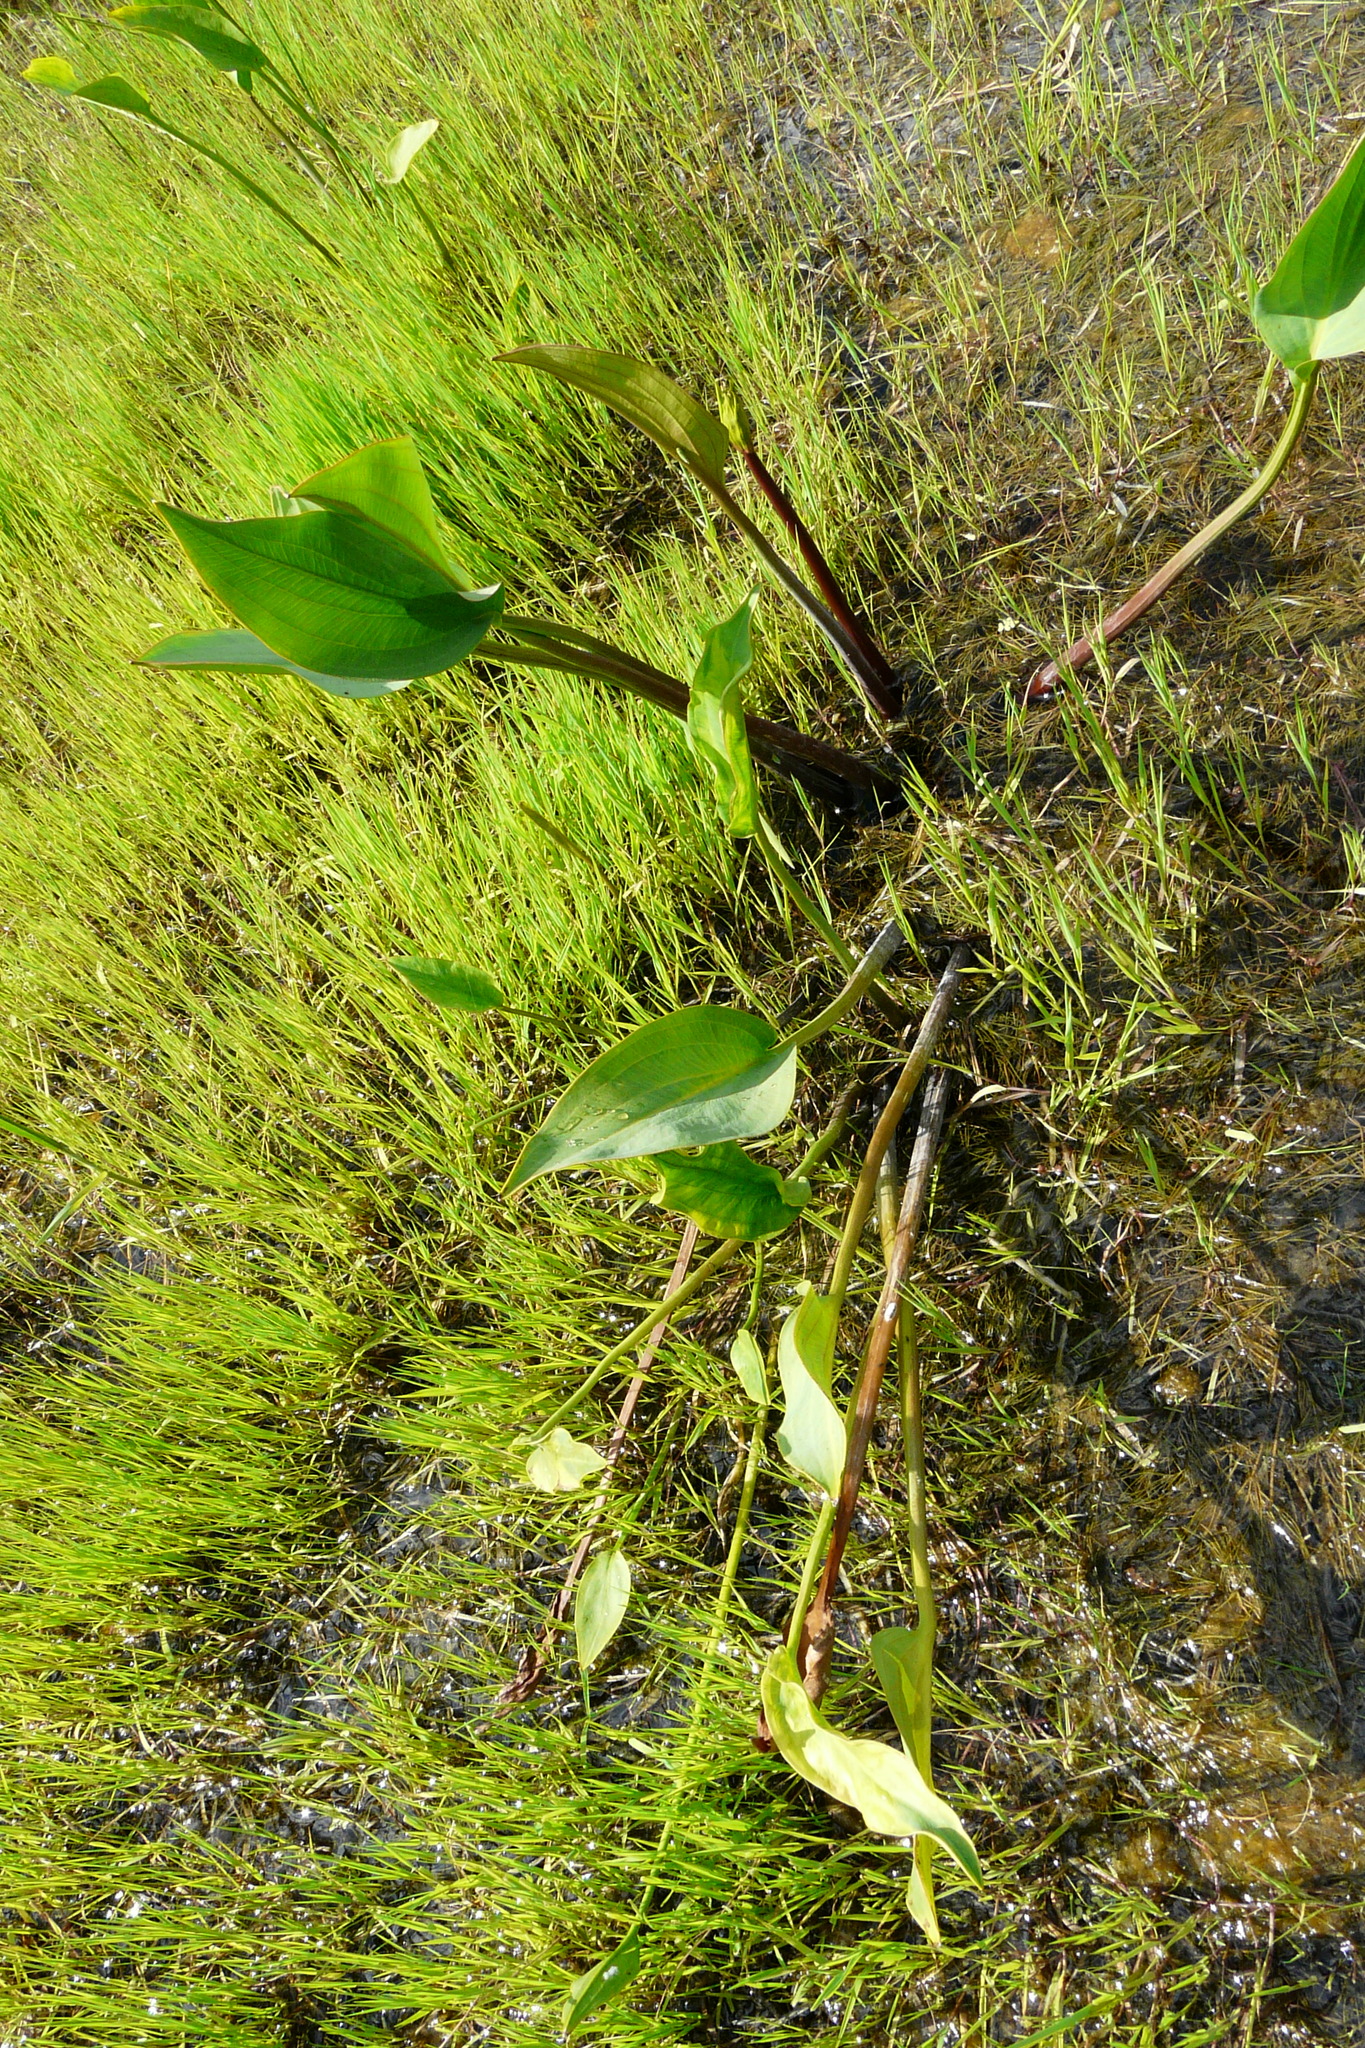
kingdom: Plantae
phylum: Tracheophyta
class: Liliopsida
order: Alismatales
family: Alismataceae
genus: Alisma
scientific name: Alisma plantago-aquatica
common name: Water-plantain
